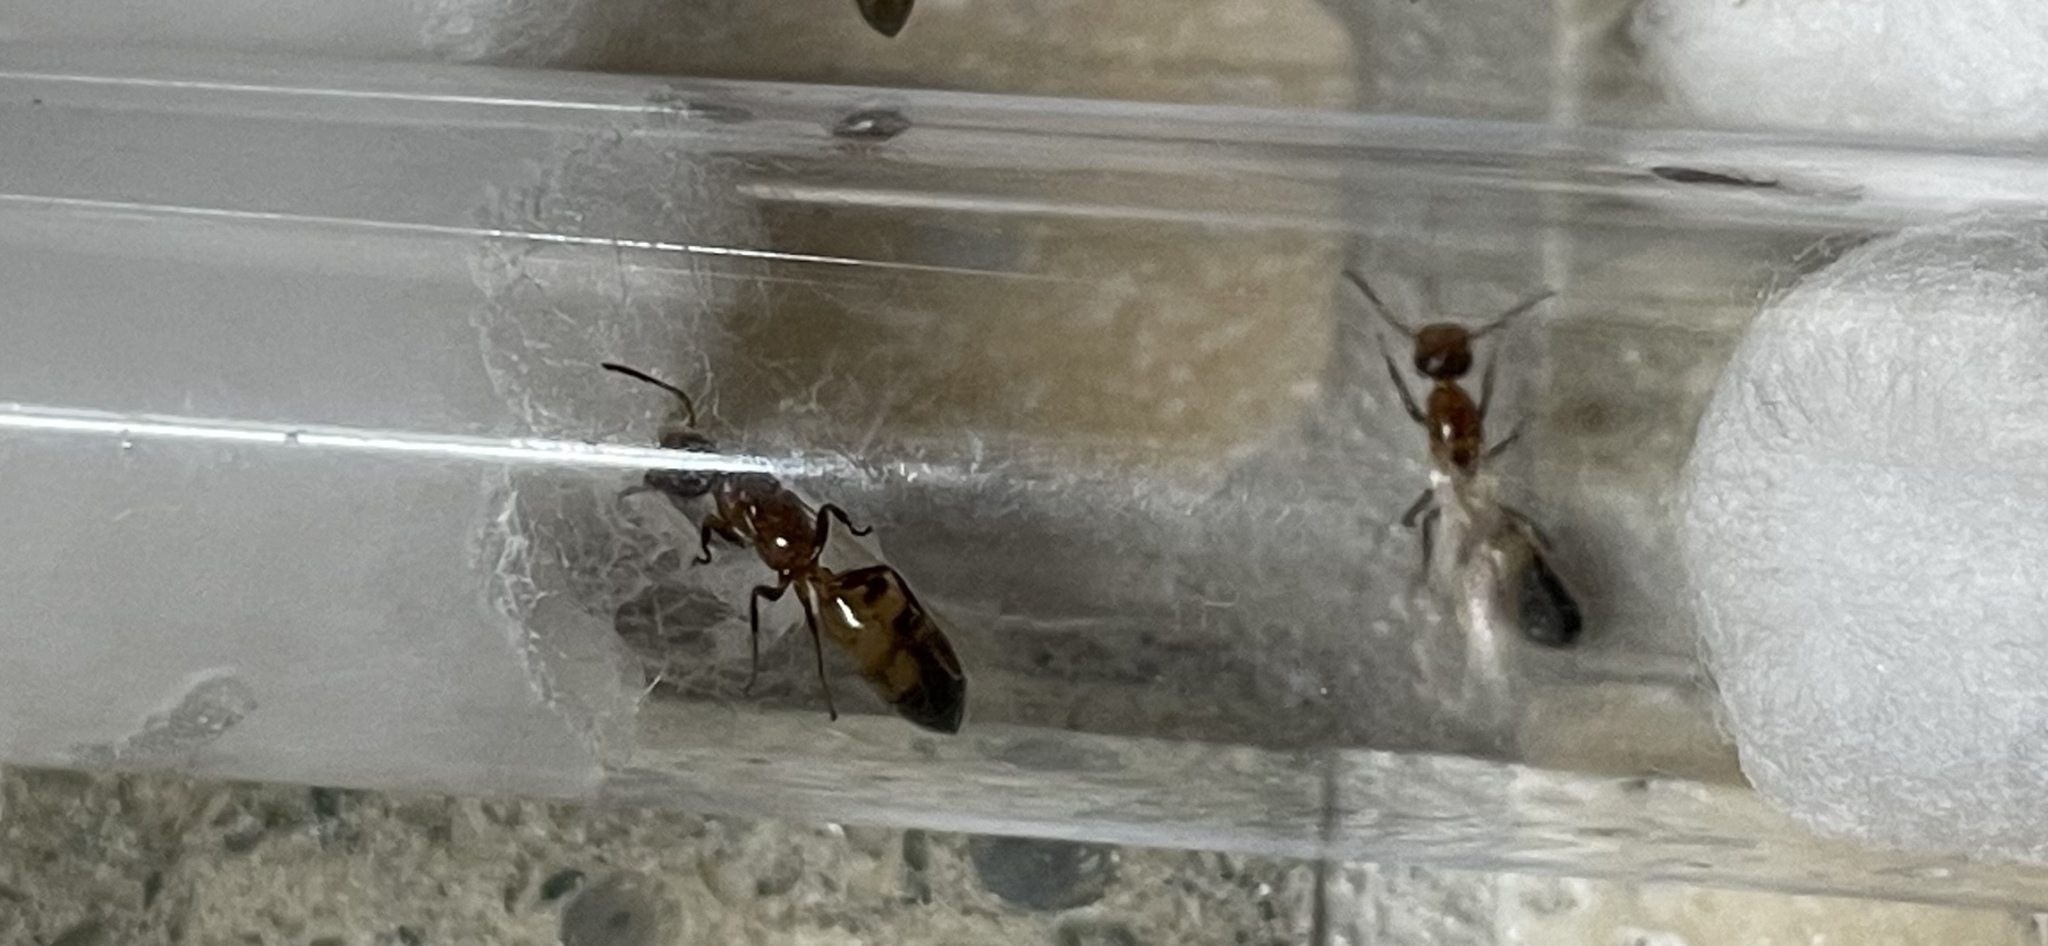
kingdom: Animalia
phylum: Arthropoda
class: Insecta
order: Hymenoptera
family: Formicidae
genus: Colobopsis
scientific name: Colobopsis impressa
